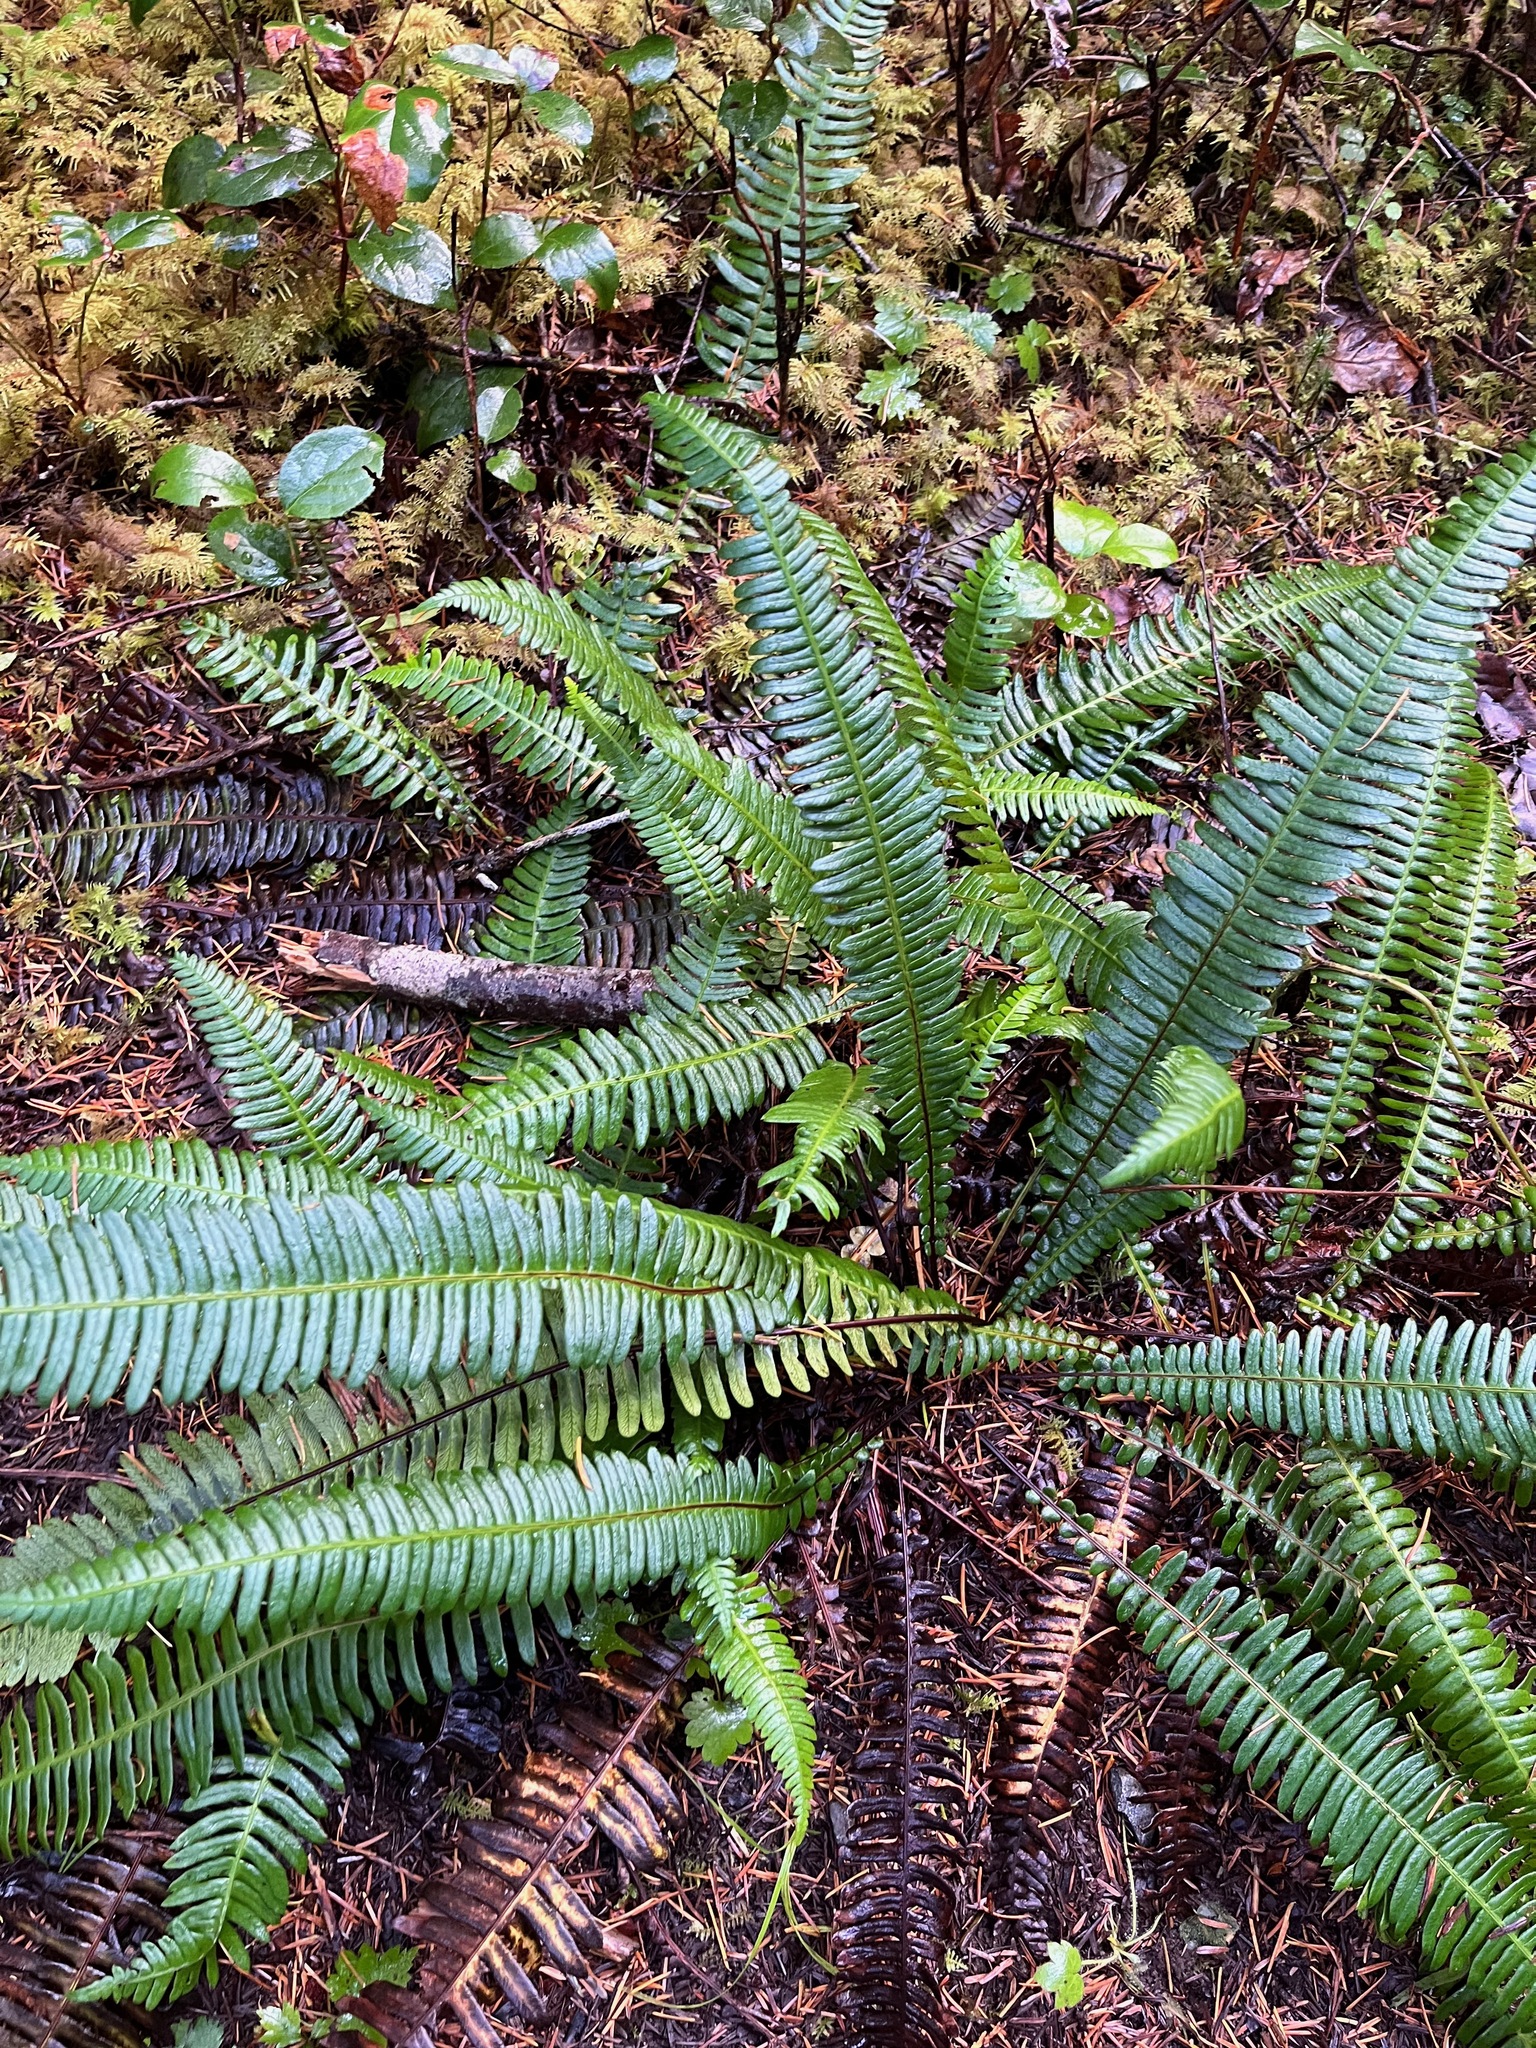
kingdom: Plantae
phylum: Tracheophyta
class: Polypodiopsida
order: Polypodiales
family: Blechnaceae
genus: Struthiopteris
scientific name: Struthiopteris spicant
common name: Deer fern
